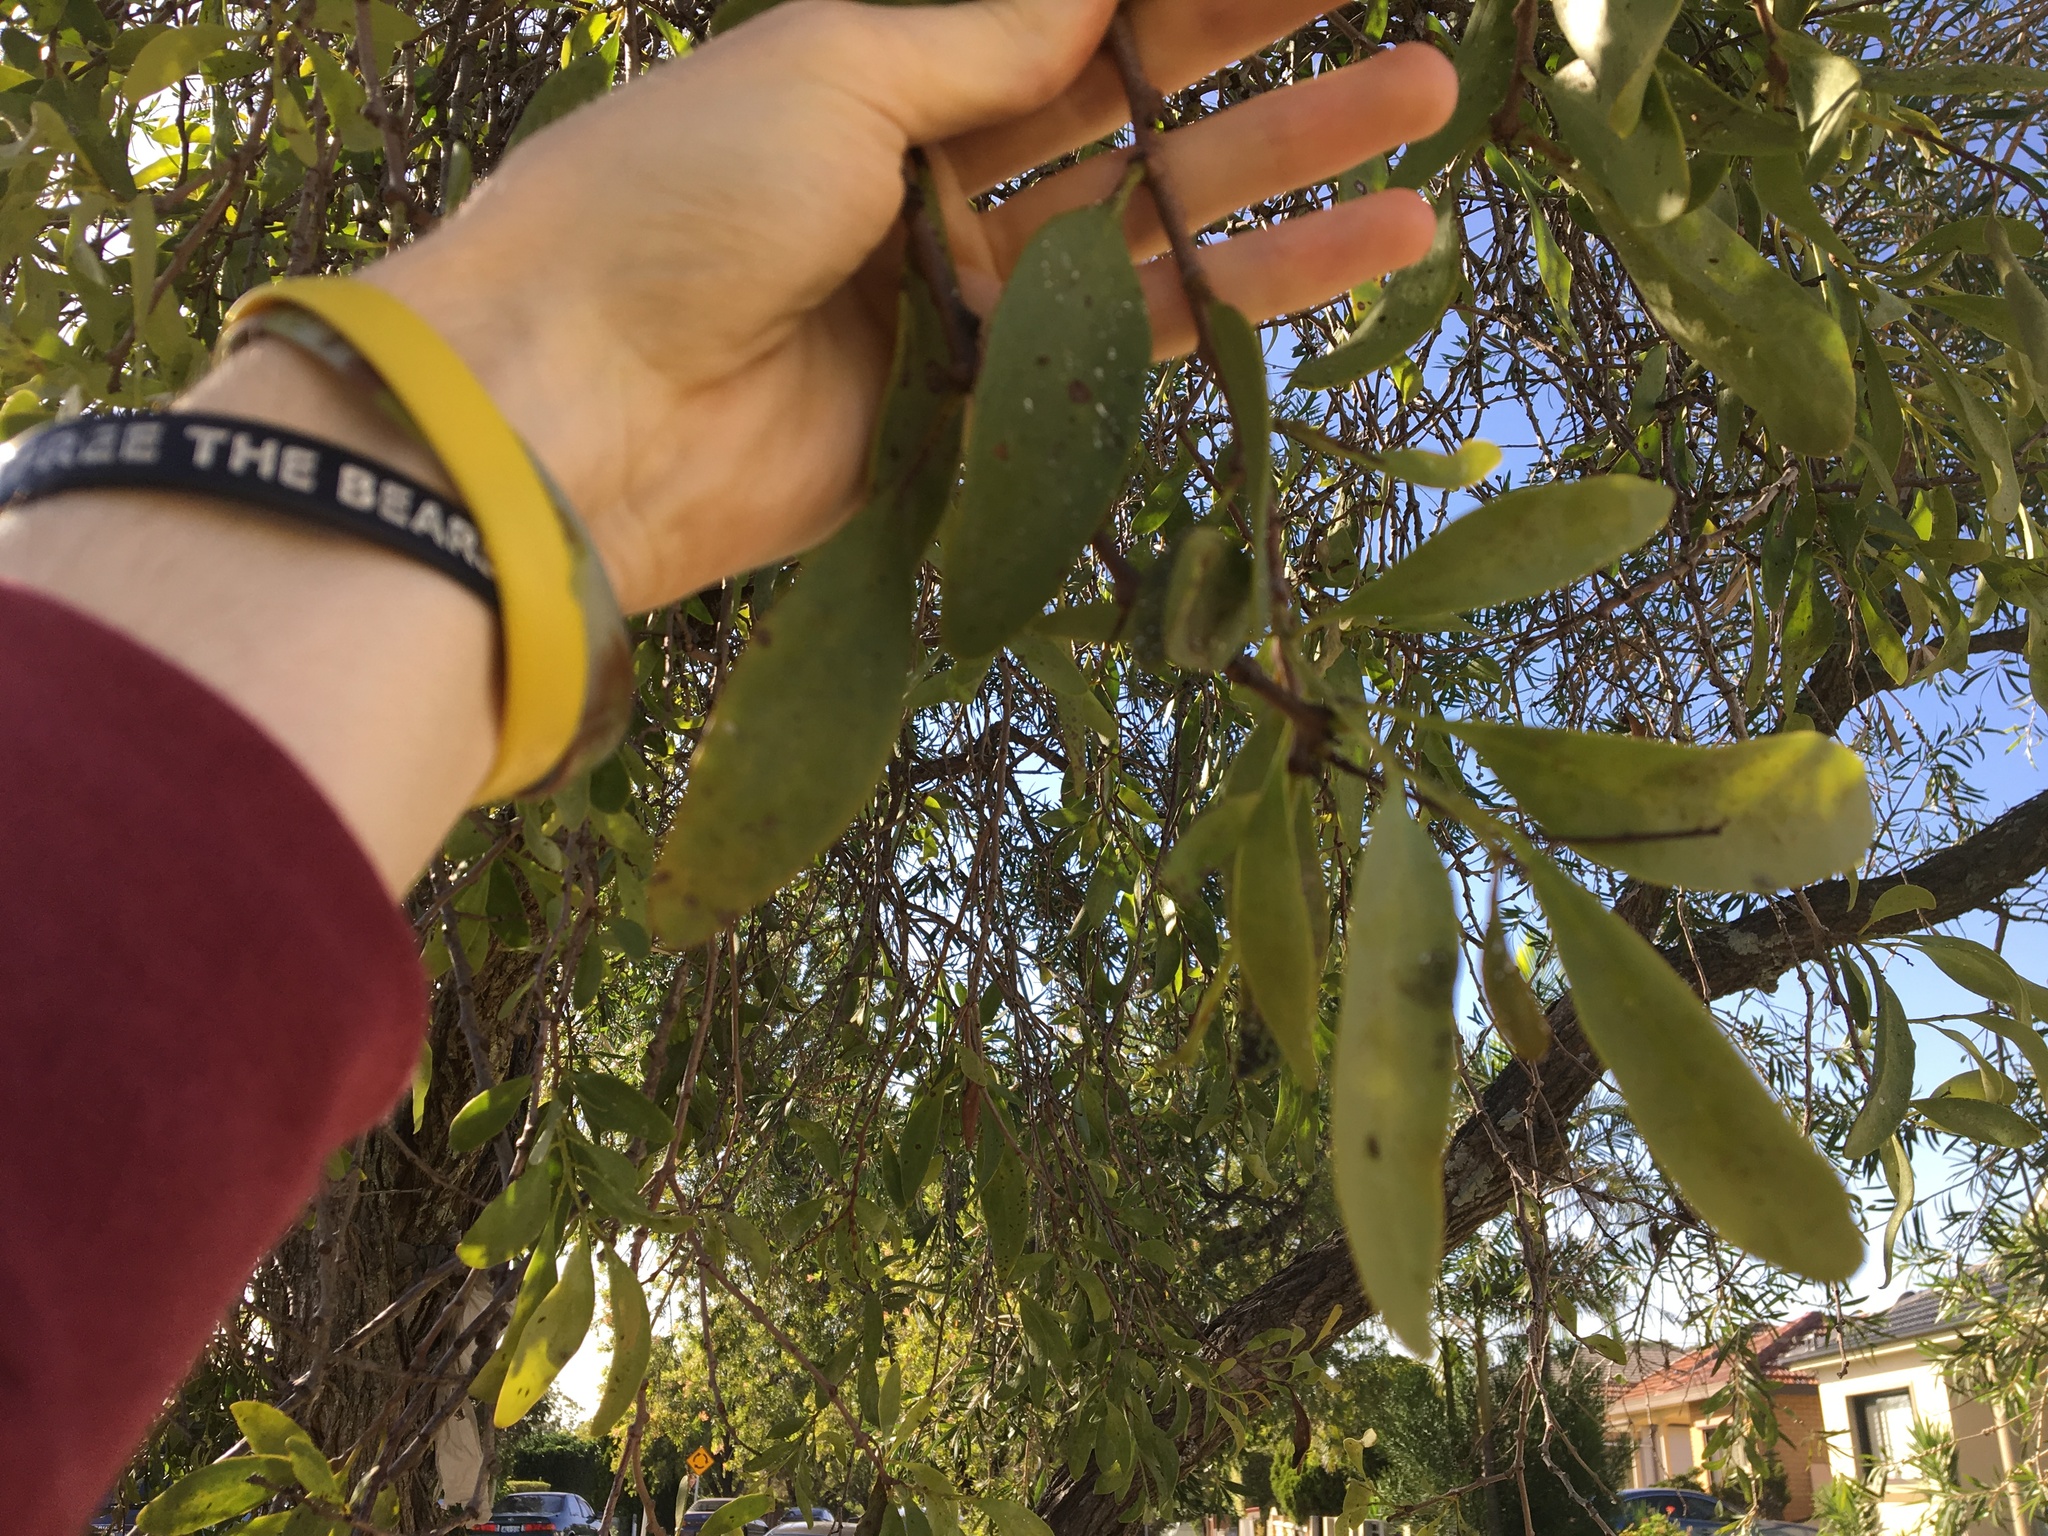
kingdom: Plantae
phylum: Tracheophyta
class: Magnoliopsida
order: Santalales
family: Loranthaceae
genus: Dendrophthoe
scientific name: Dendrophthoe vitellina
